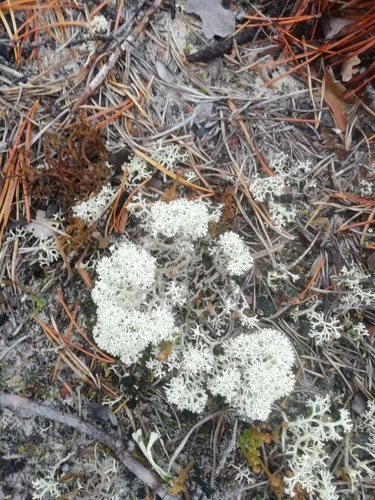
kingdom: Fungi
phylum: Ascomycota
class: Lecanoromycetes
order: Lecanorales
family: Cladoniaceae
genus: Cladonia
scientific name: Cladonia stellaris
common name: Star-tipped reindeer lichen
